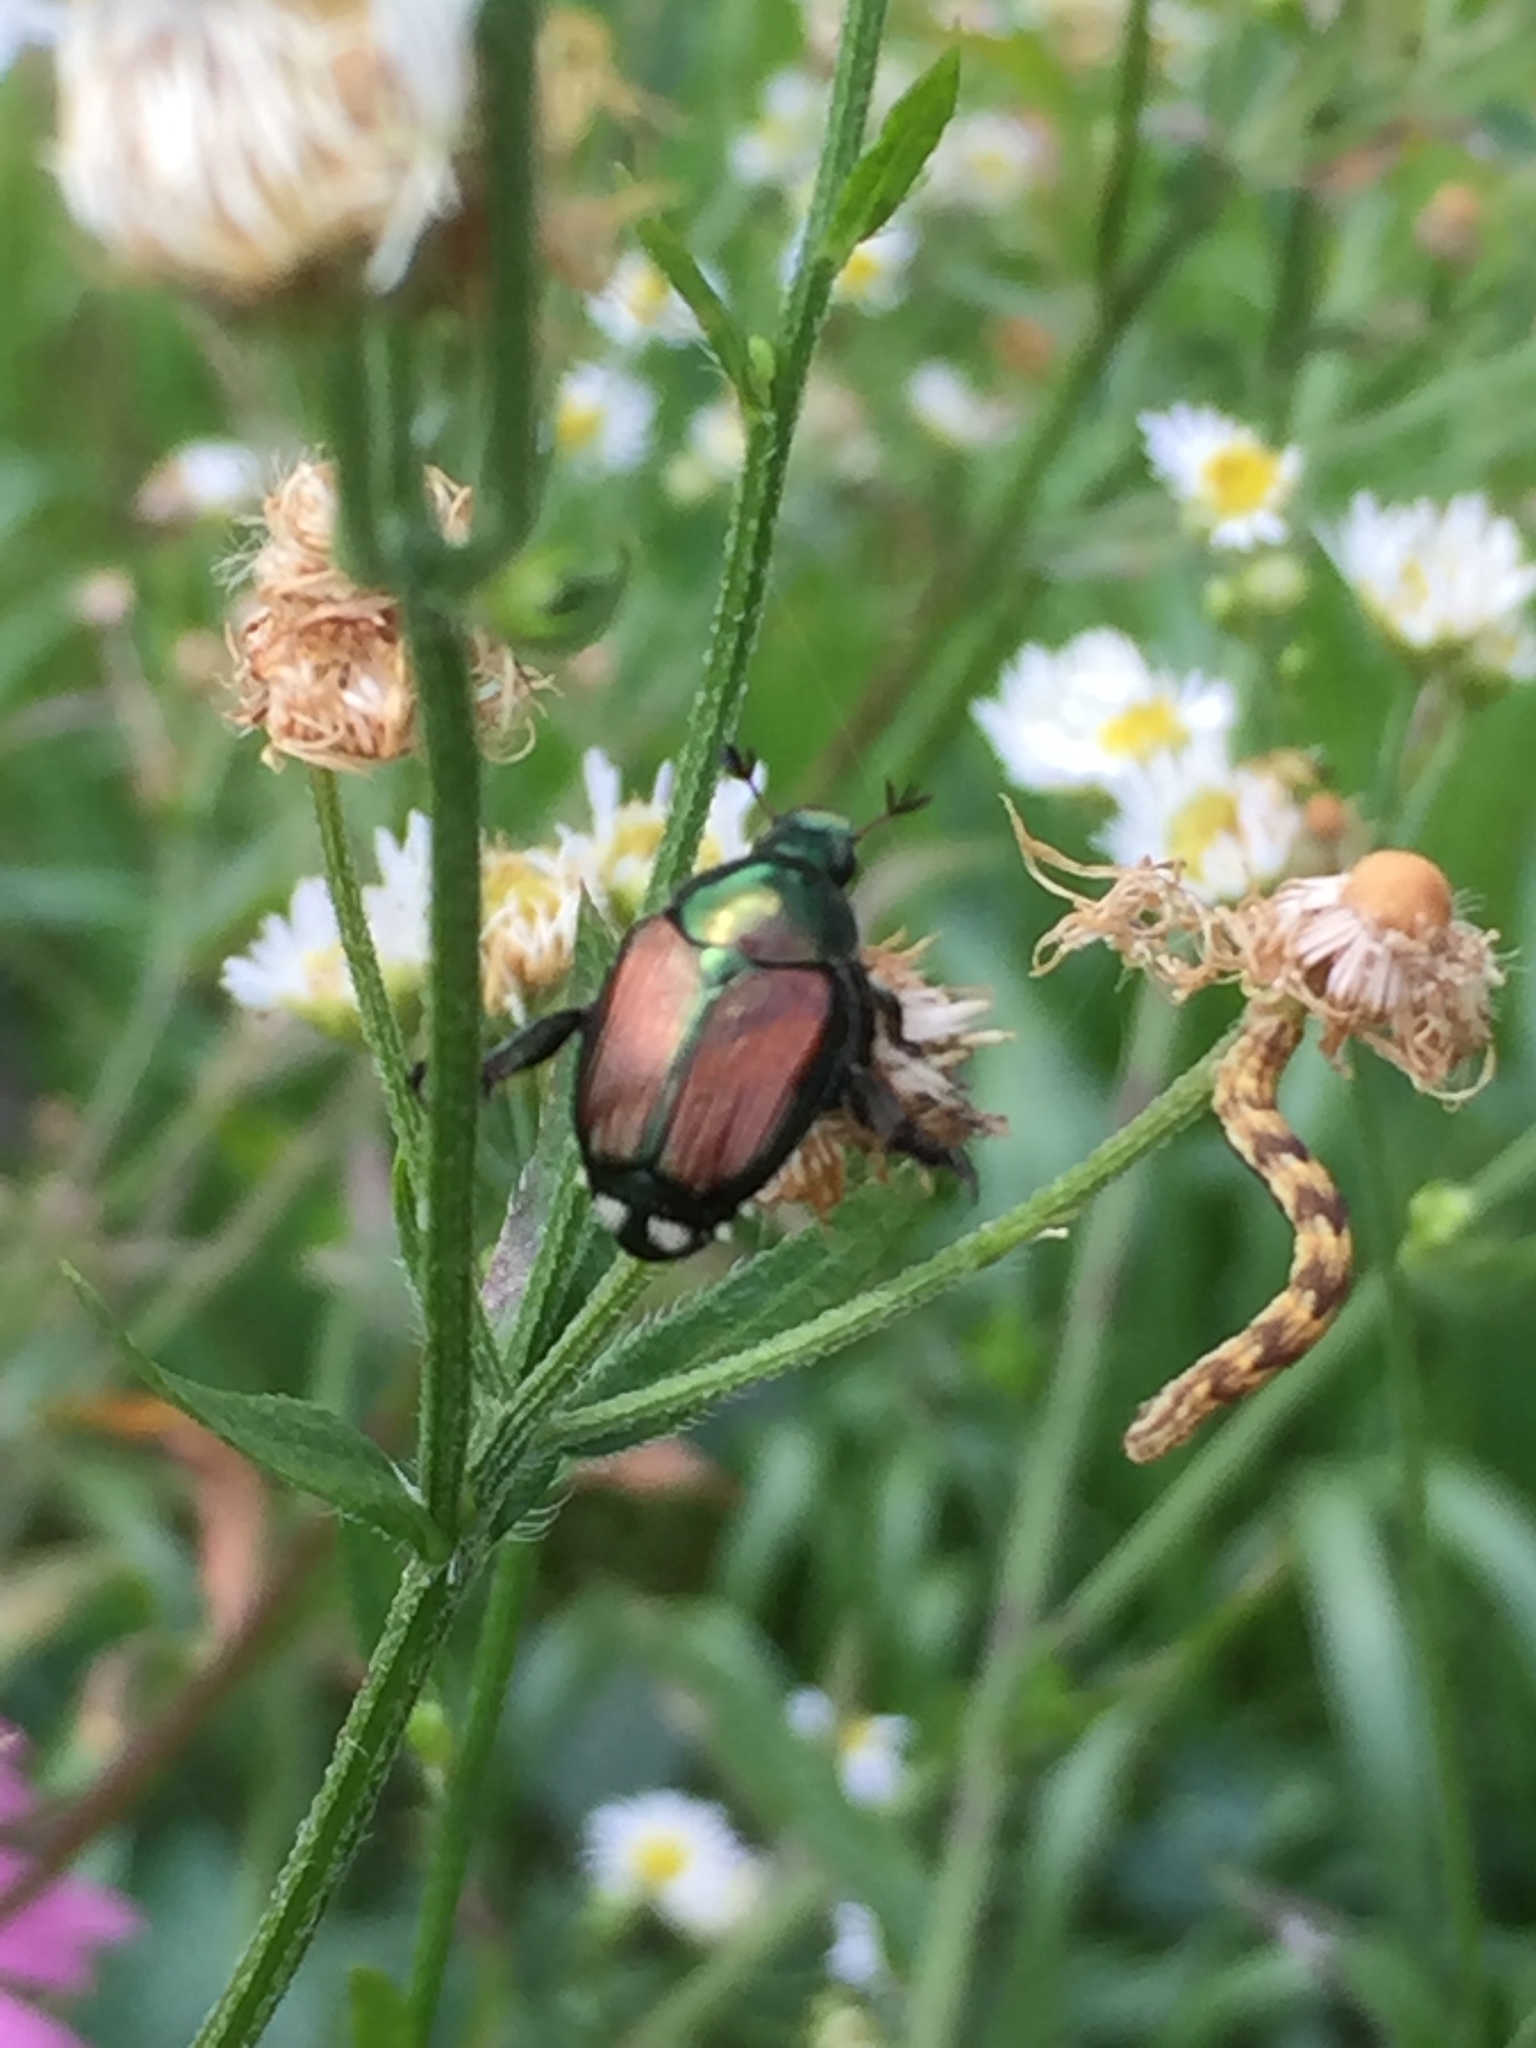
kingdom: Animalia
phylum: Arthropoda
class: Insecta
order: Coleoptera
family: Scarabaeidae
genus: Popillia
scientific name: Popillia japonica
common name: Japanese beetle
